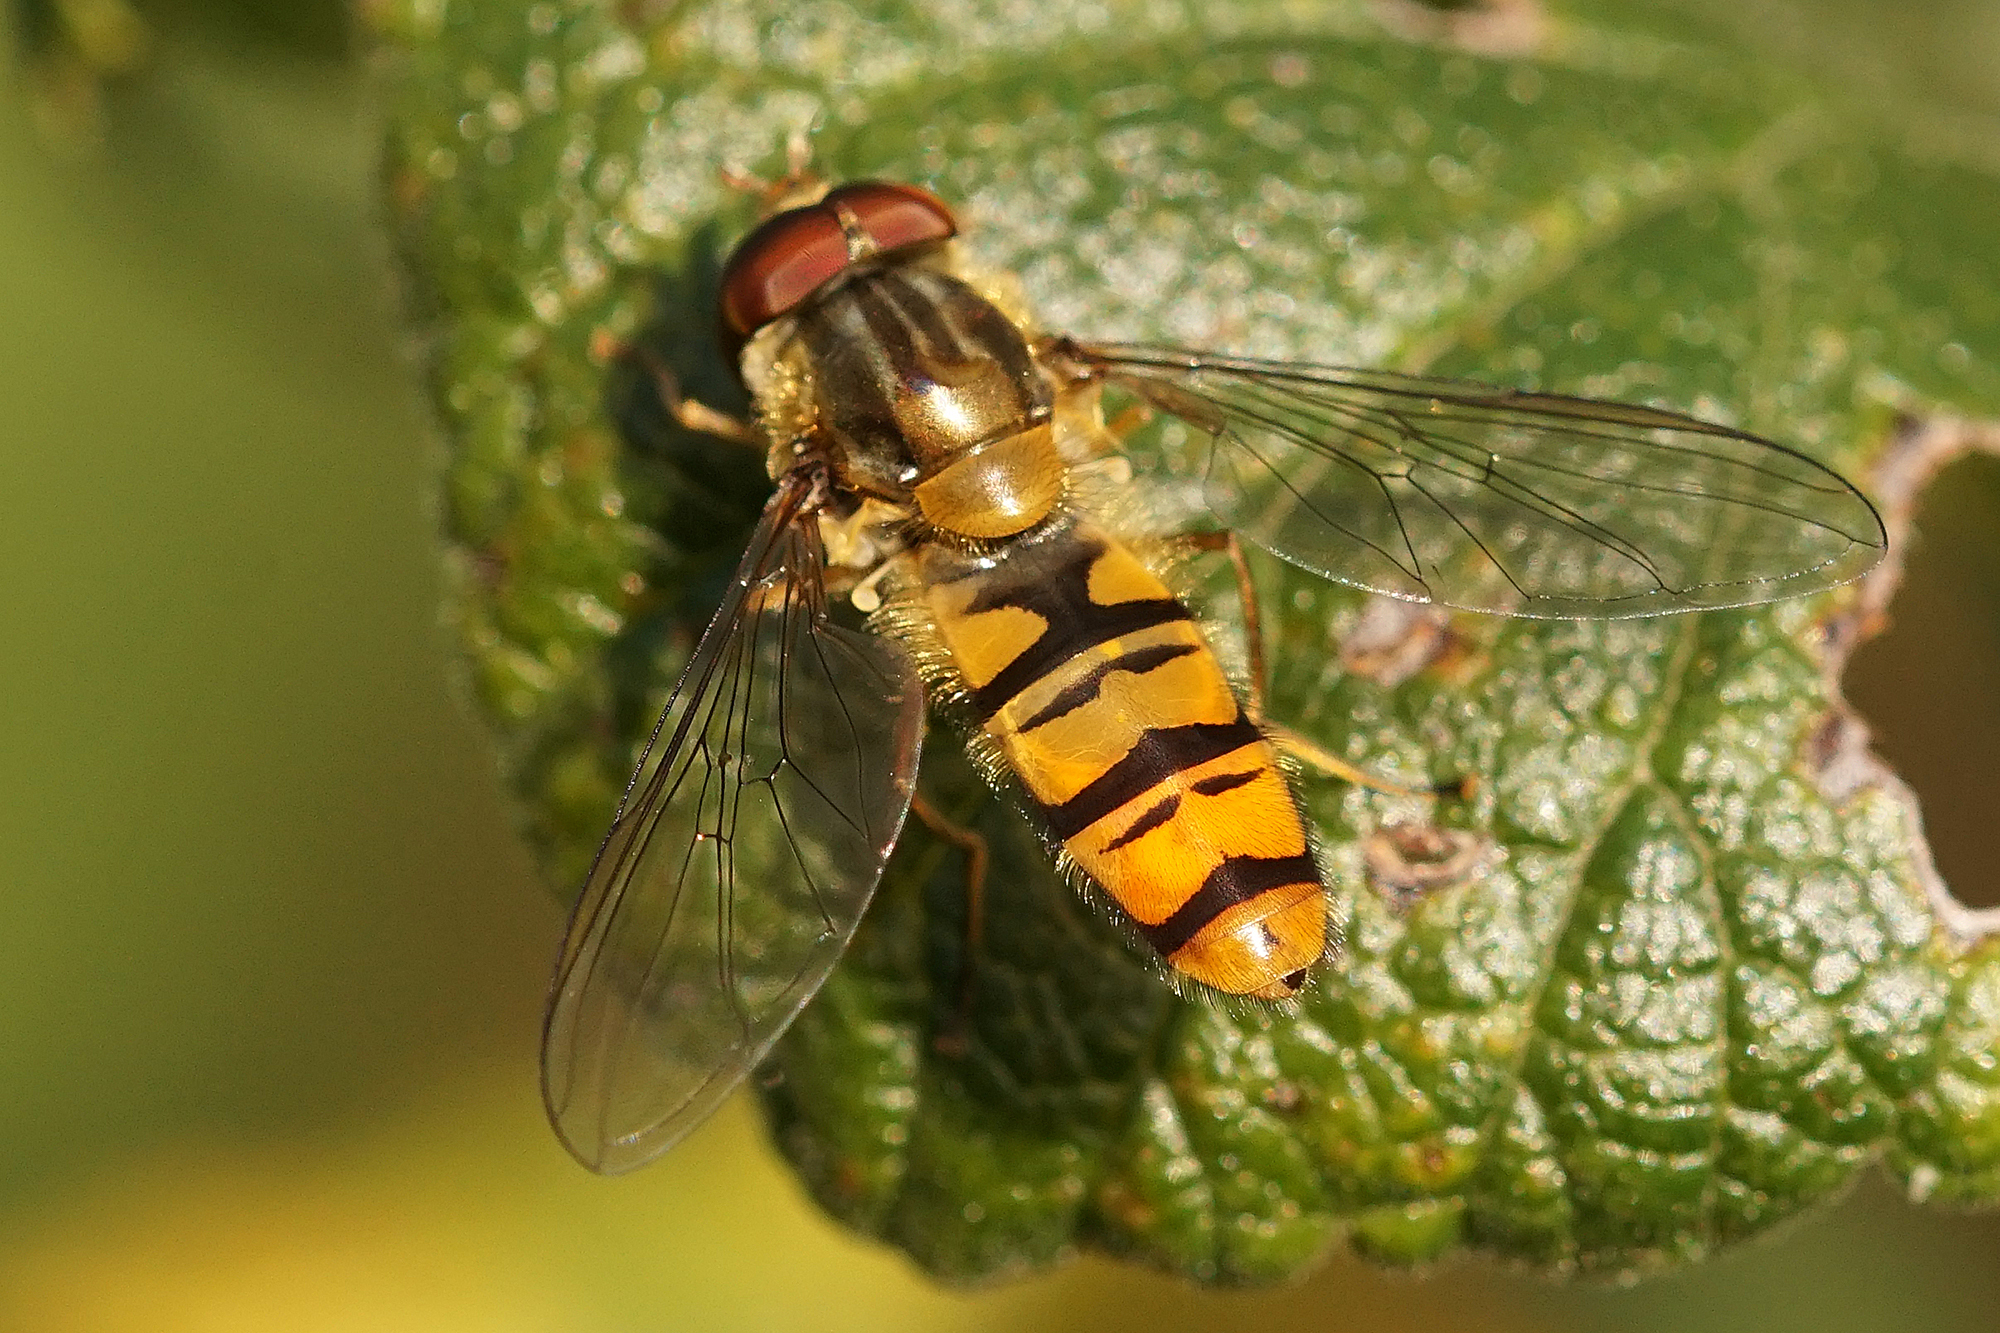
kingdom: Animalia
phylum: Arthropoda
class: Insecta
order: Diptera
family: Syrphidae
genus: Episyrphus
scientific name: Episyrphus balteatus
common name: Marmalade hoverfly
